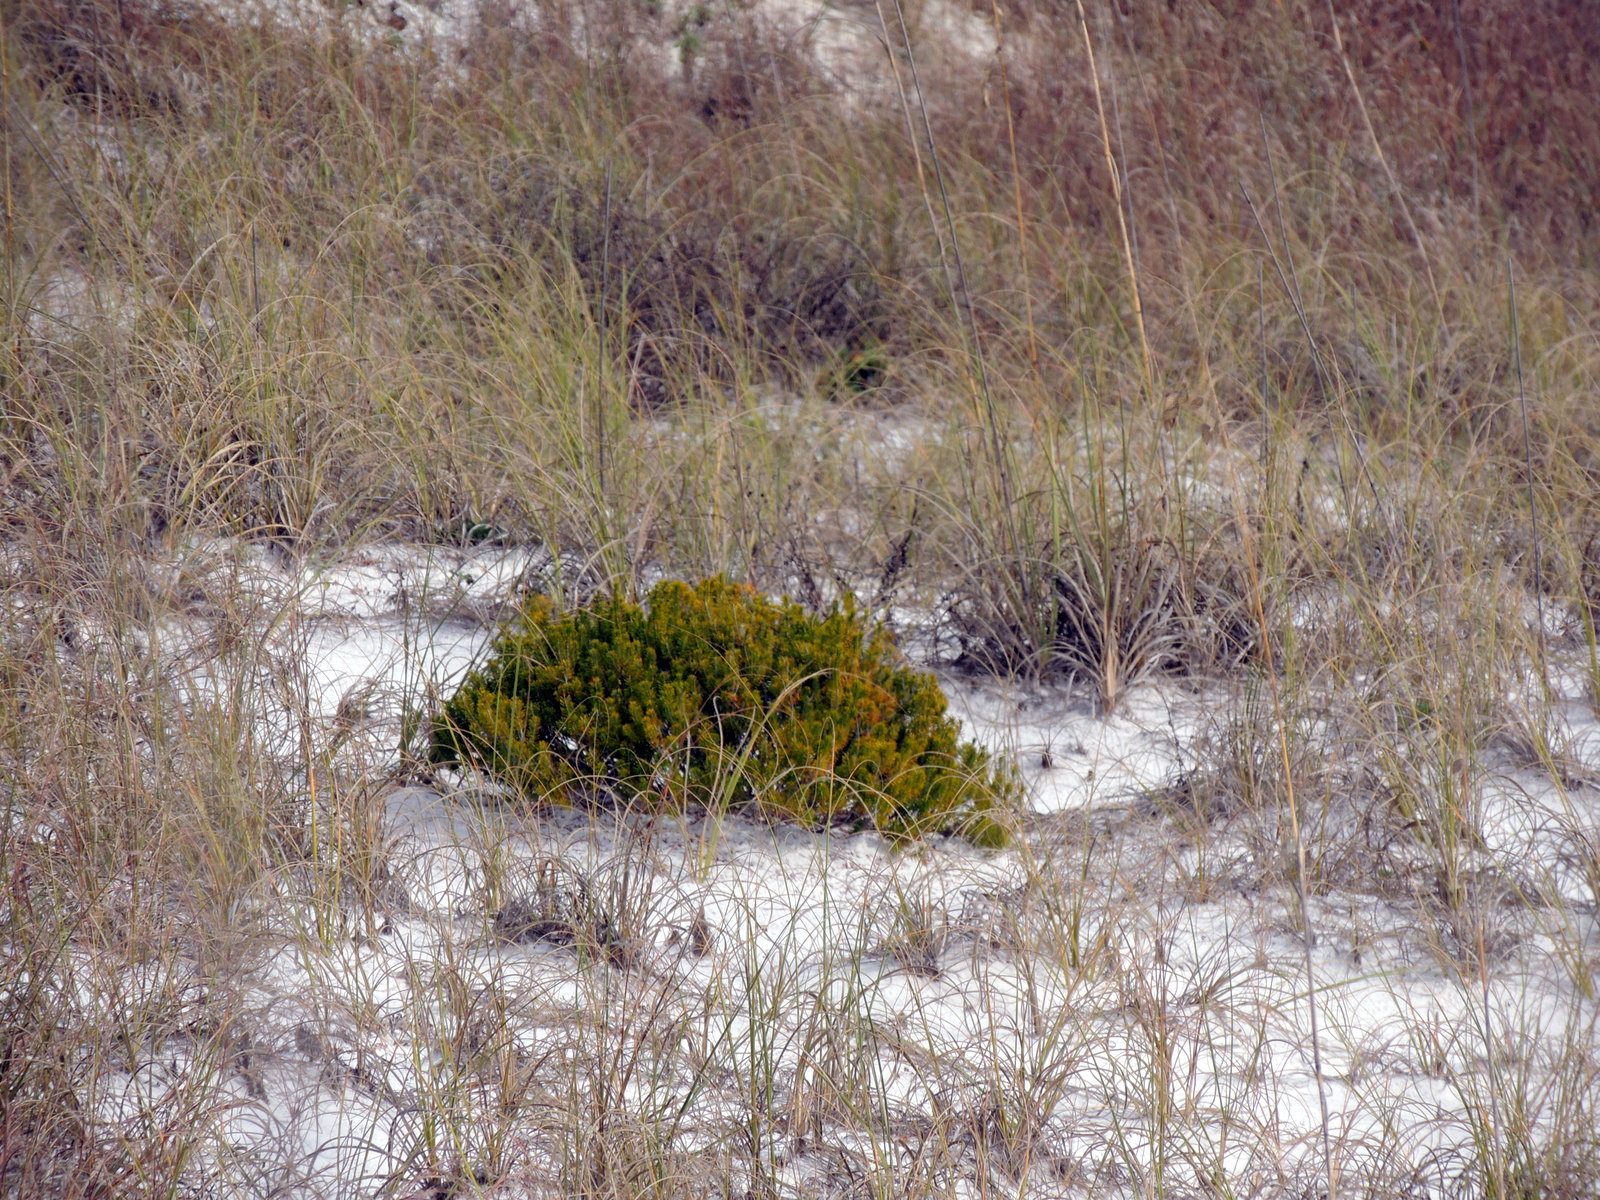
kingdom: Plantae
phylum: Tracheophyta
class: Magnoliopsida
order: Ericales
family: Ericaceae
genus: Ceratiola
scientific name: Ceratiola ericoides
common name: Sandhill-rosemary
